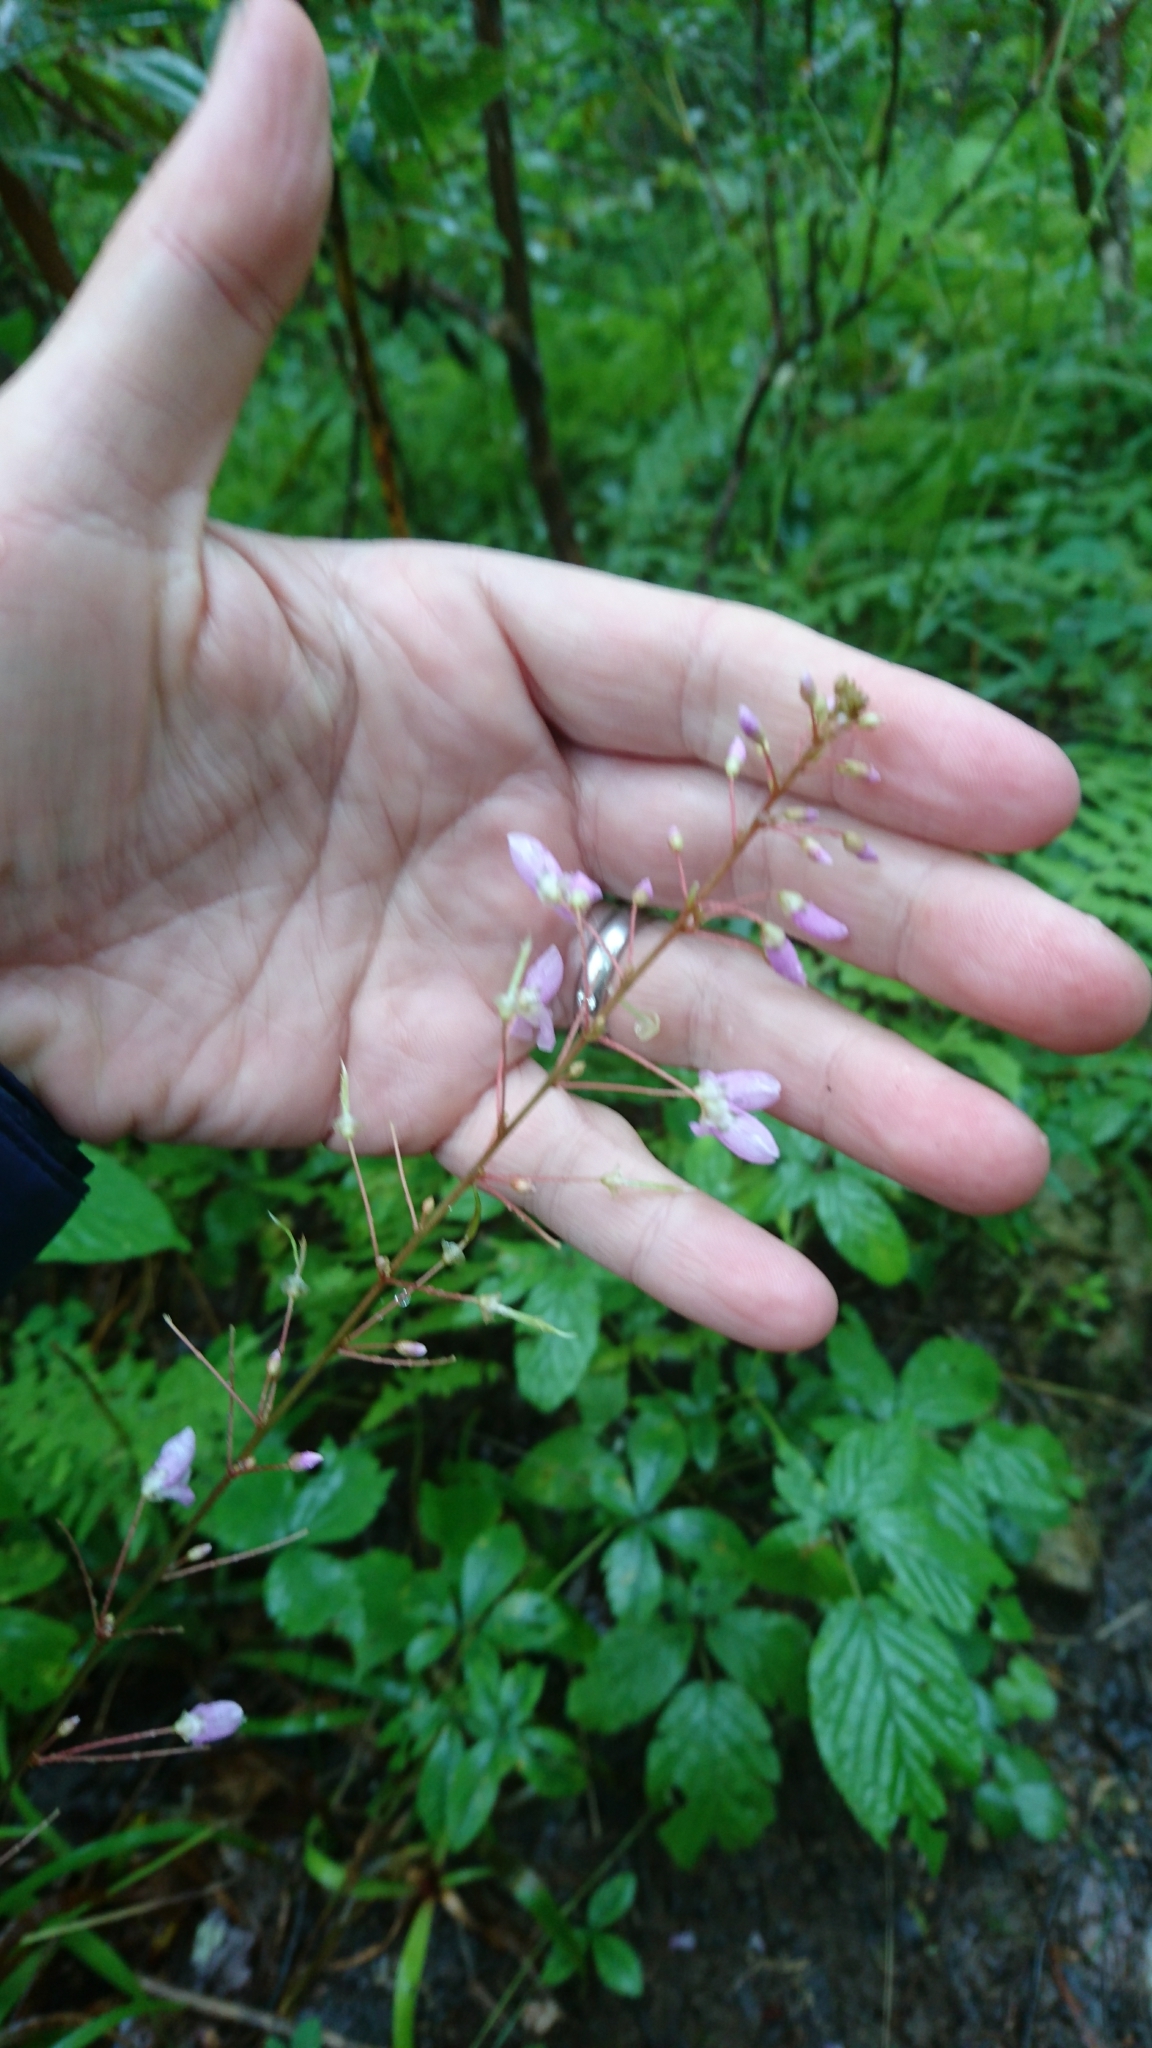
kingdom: Plantae
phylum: Tracheophyta
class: Magnoliopsida
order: Fabales
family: Fabaceae
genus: Hylodesmum
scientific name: Hylodesmum nudiflorum
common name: Bare-stemmed tick-trefoil
